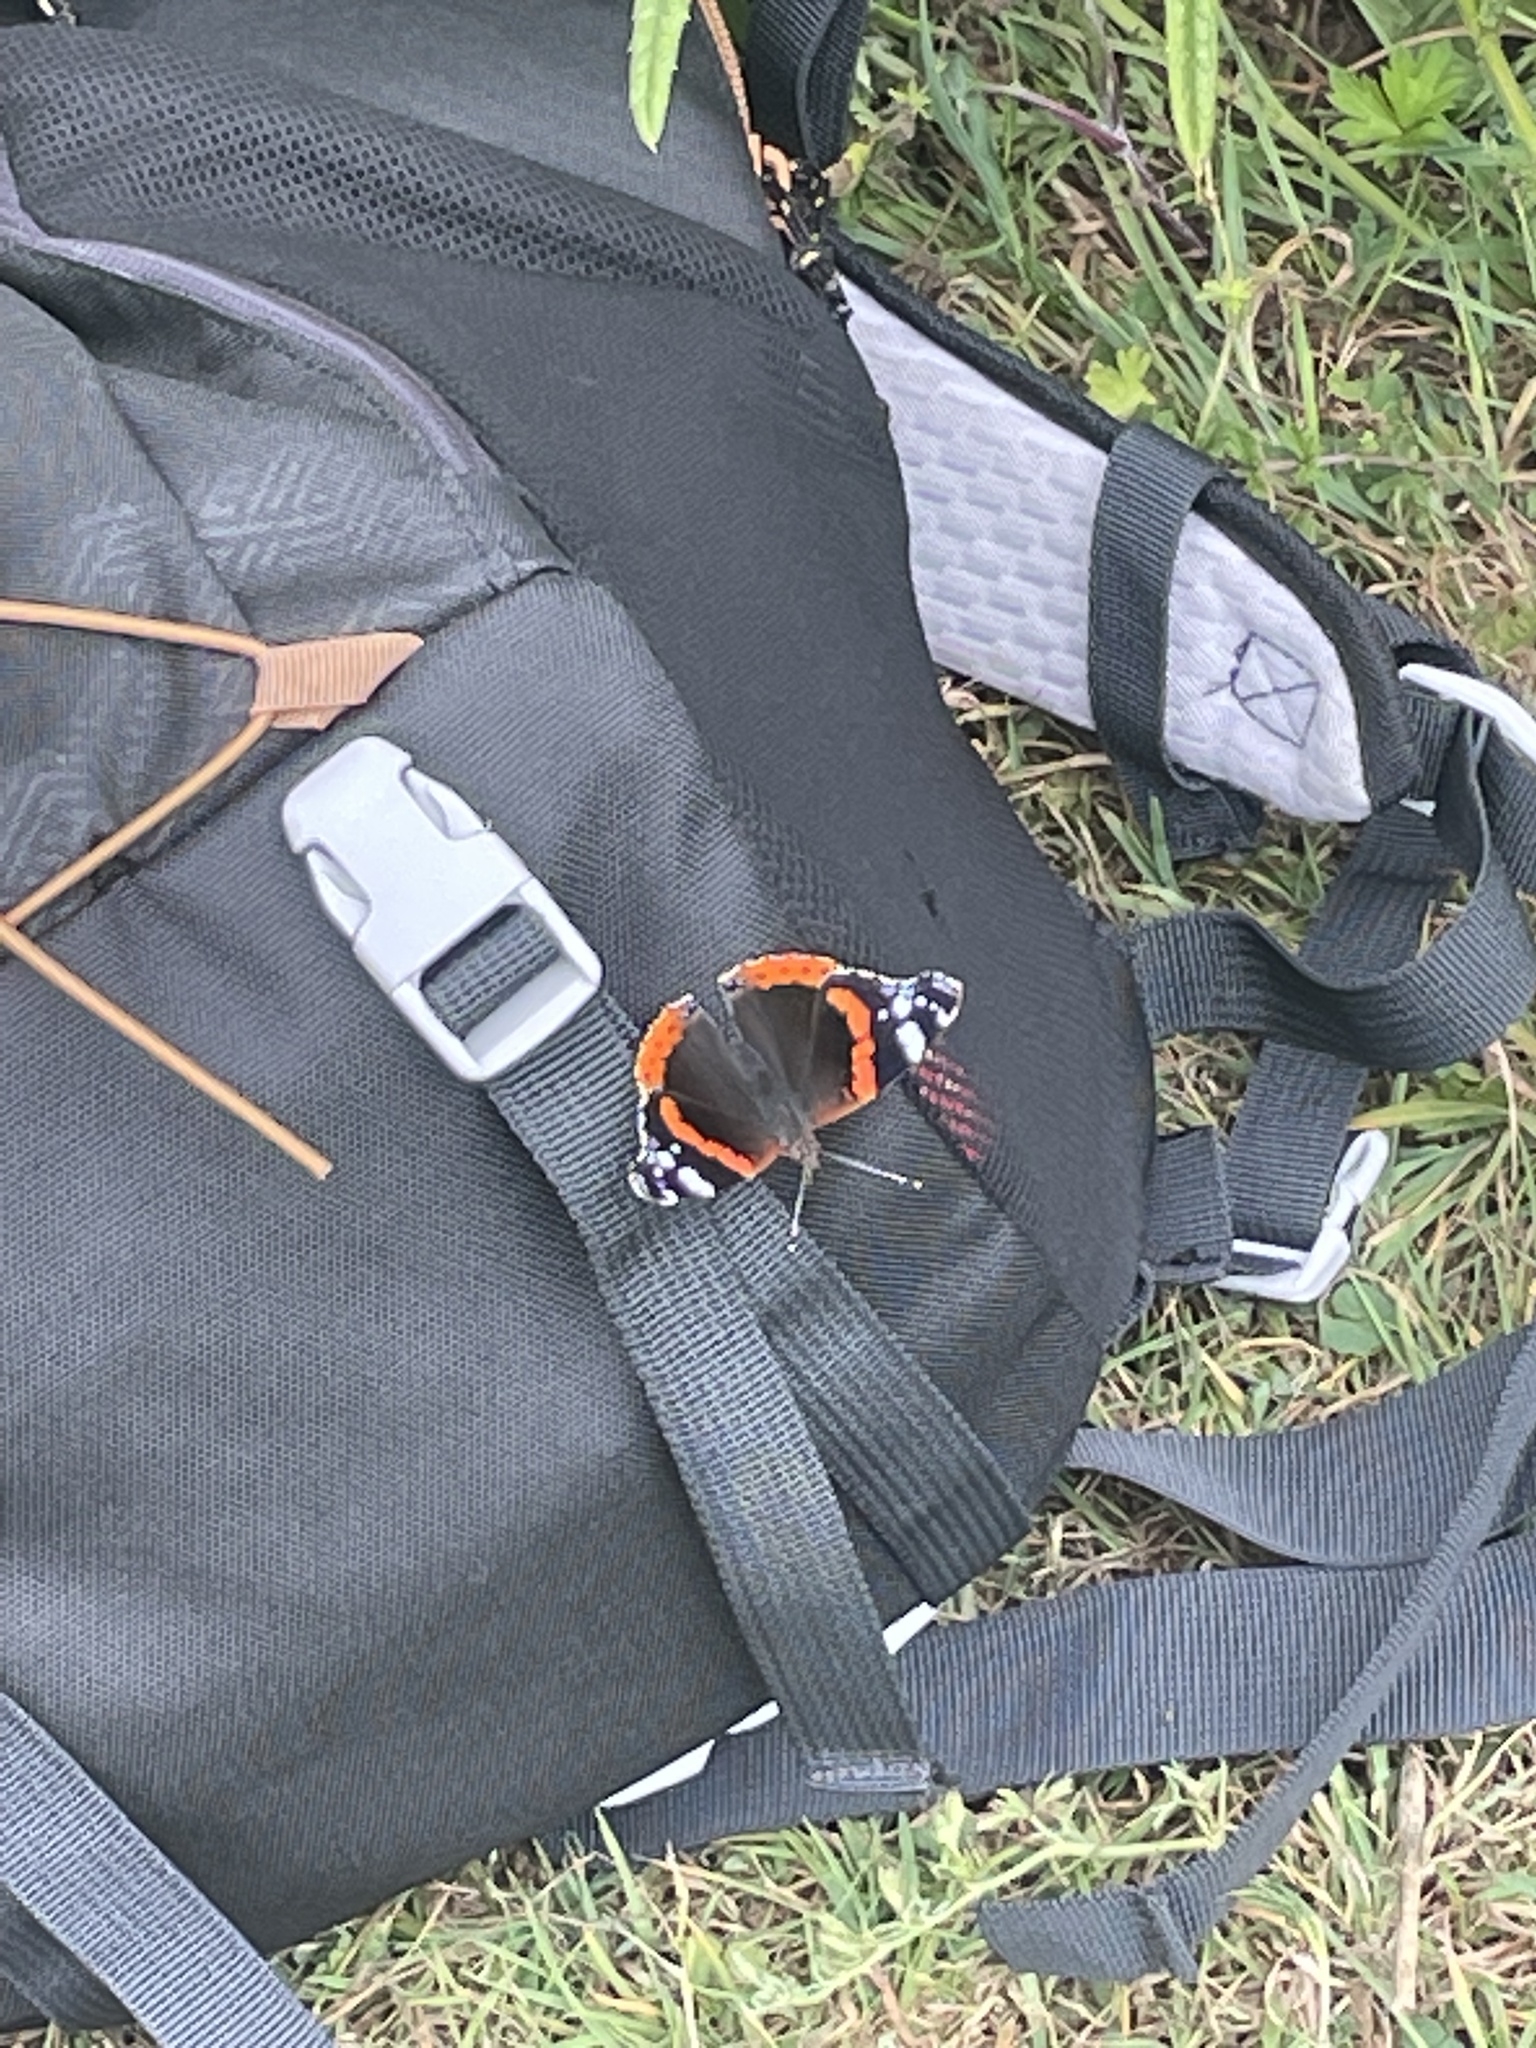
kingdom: Animalia
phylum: Arthropoda
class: Insecta
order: Lepidoptera
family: Nymphalidae
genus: Vanessa
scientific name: Vanessa atalanta
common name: Red admiral
